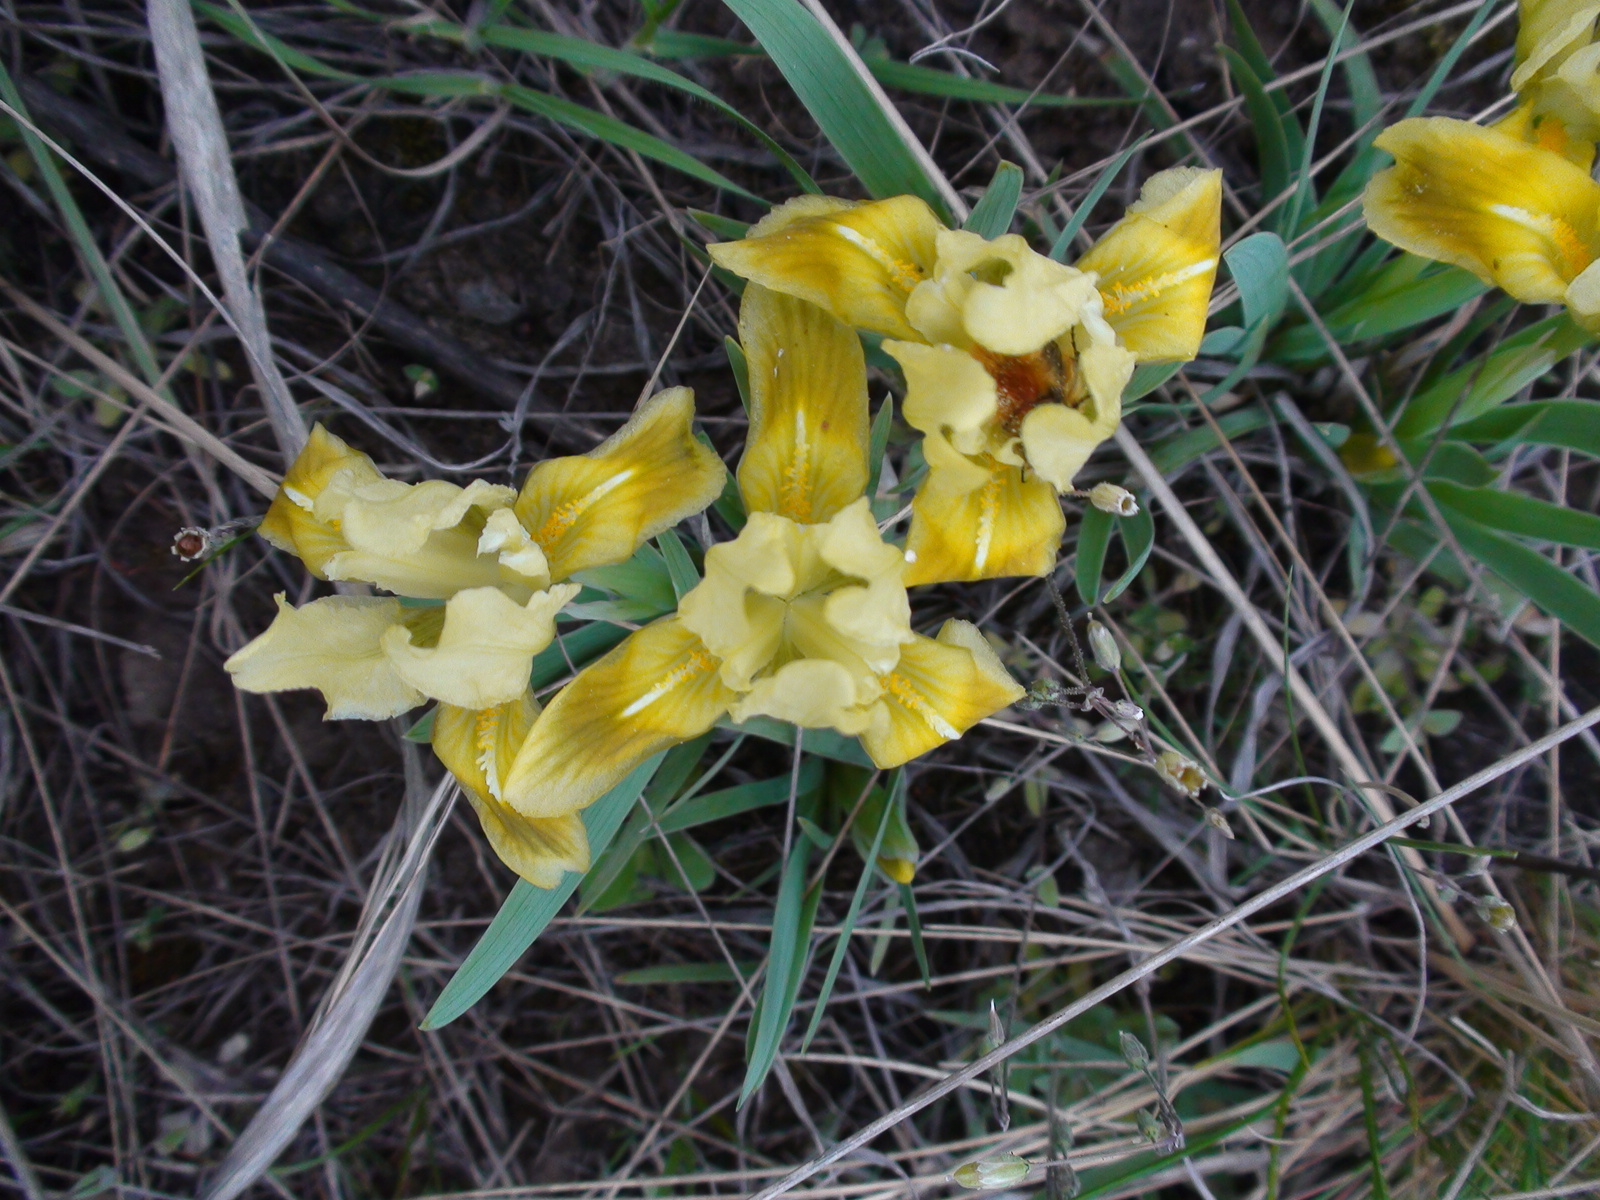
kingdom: Plantae
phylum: Tracheophyta
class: Liliopsida
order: Asparagales
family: Iridaceae
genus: Iris
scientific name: Iris pumila
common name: Dwarf iris
